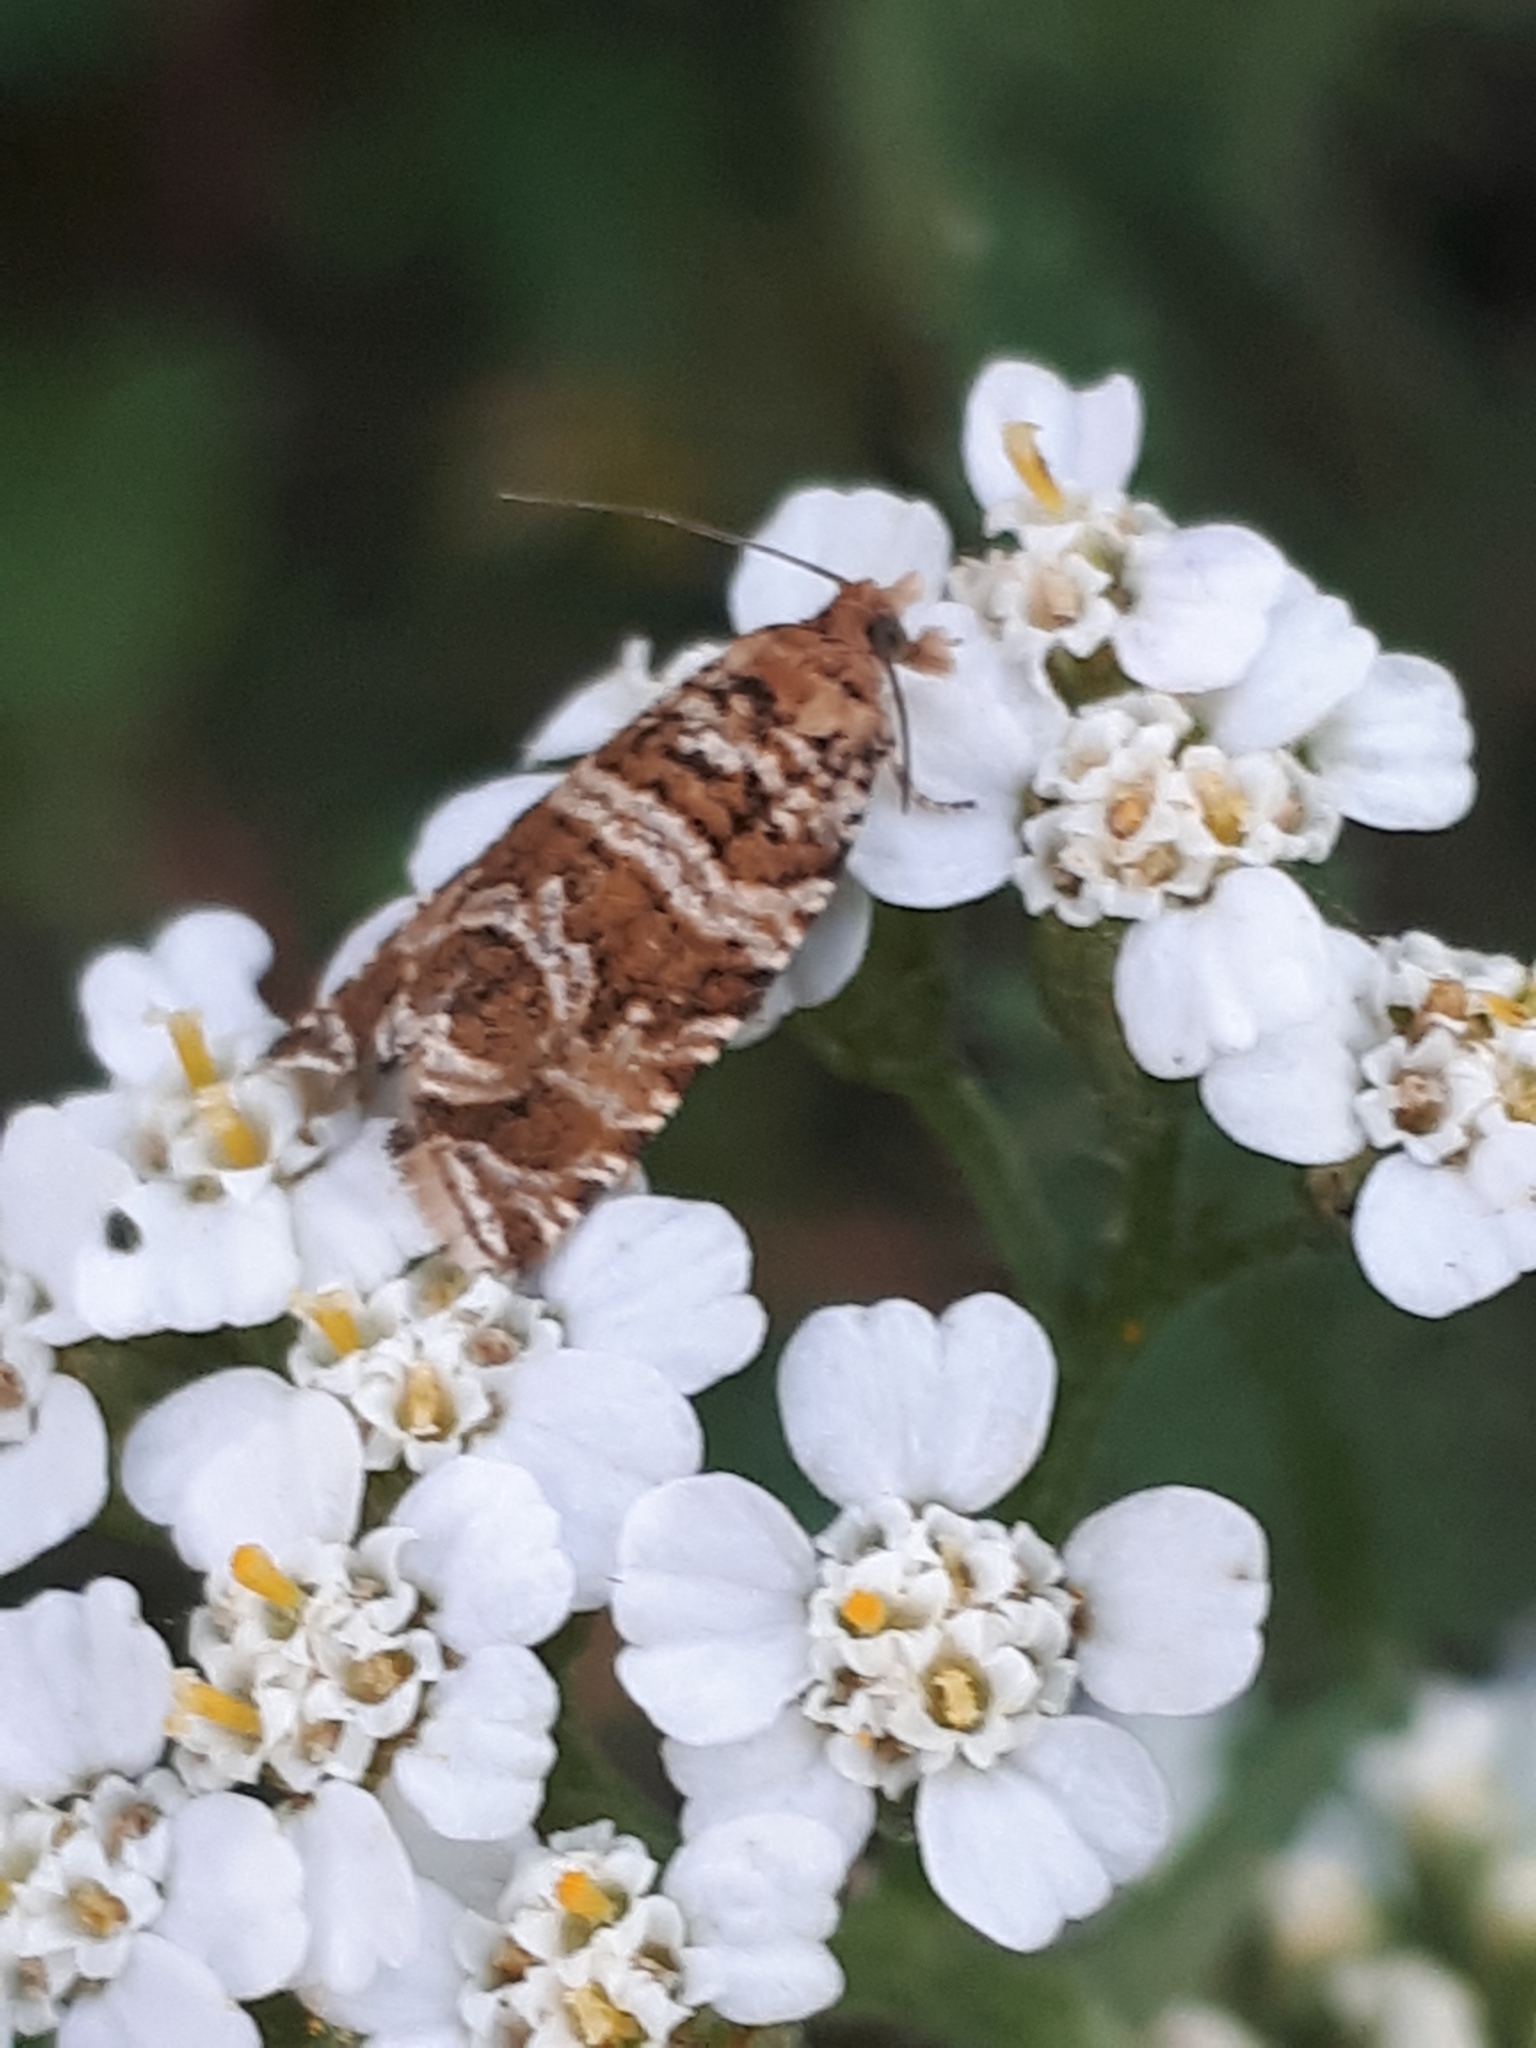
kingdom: Animalia
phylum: Arthropoda
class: Insecta
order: Lepidoptera
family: Tortricidae
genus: Syricoris
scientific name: Syricoris rivulana
